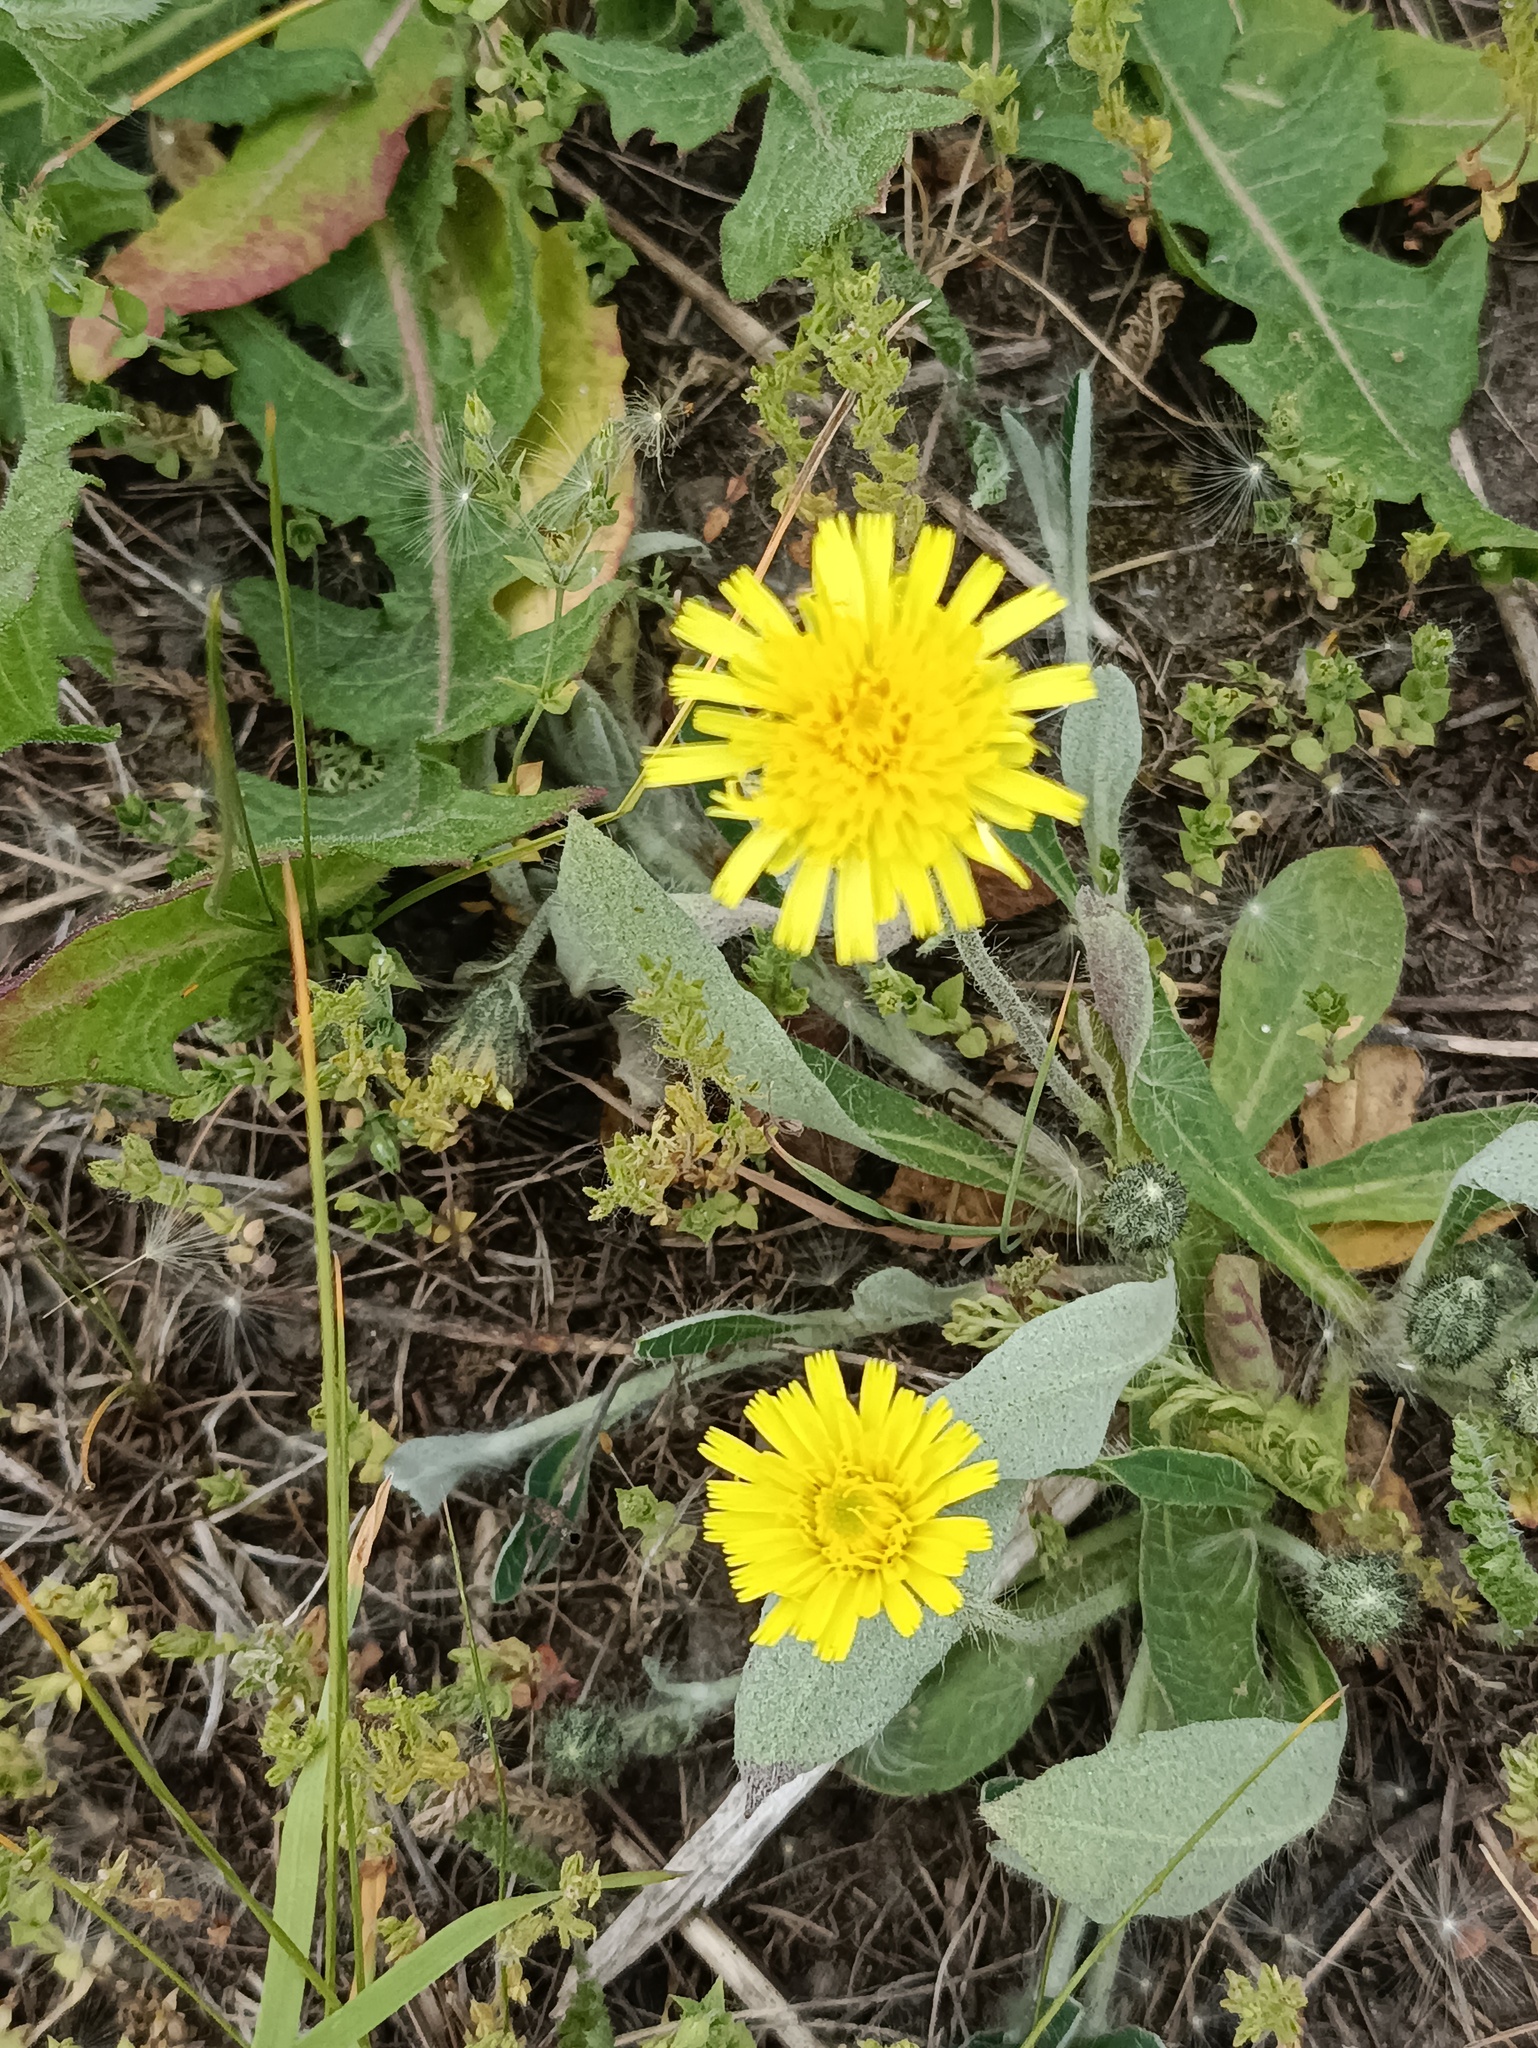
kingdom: Plantae
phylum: Tracheophyta
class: Magnoliopsida
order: Asterales
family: Asteraceae
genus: Pilosella
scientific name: Pilosella officinarum
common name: Mouse-ear hawkweed
